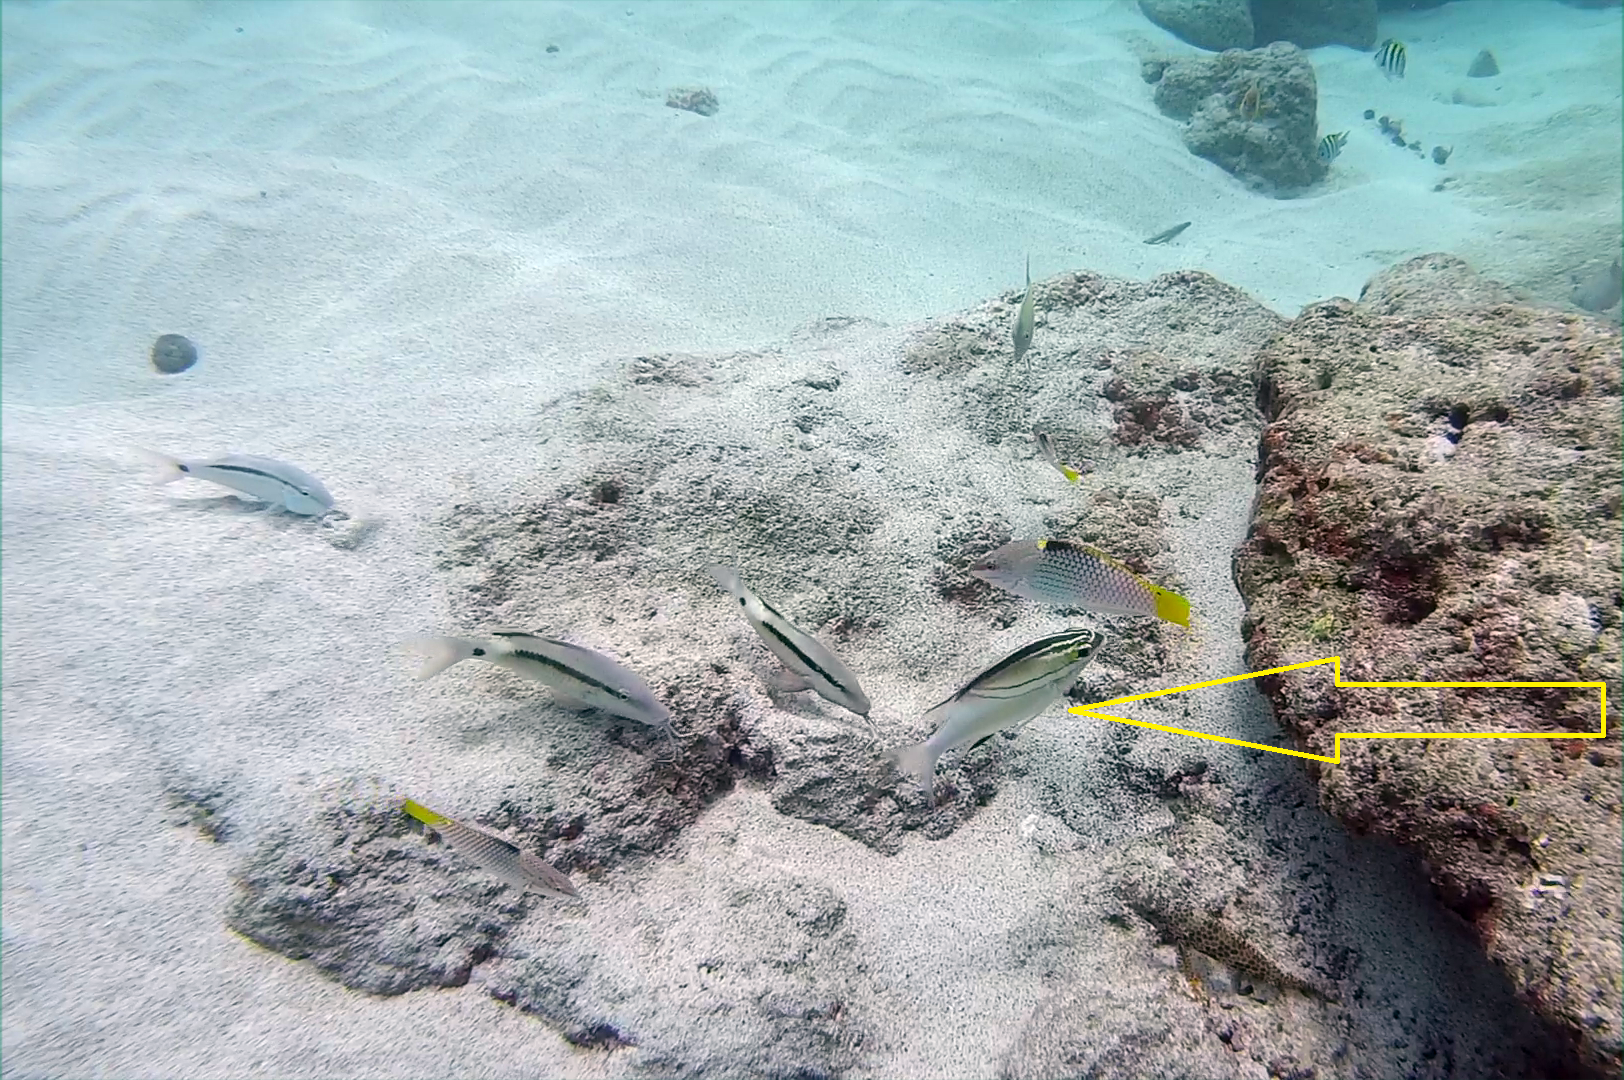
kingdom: Animalia
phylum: Chordata
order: Perciformes
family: Nemipteridae
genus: Scolopsis
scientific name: Scolopsis bilineata
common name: Two-lined monocle bream
